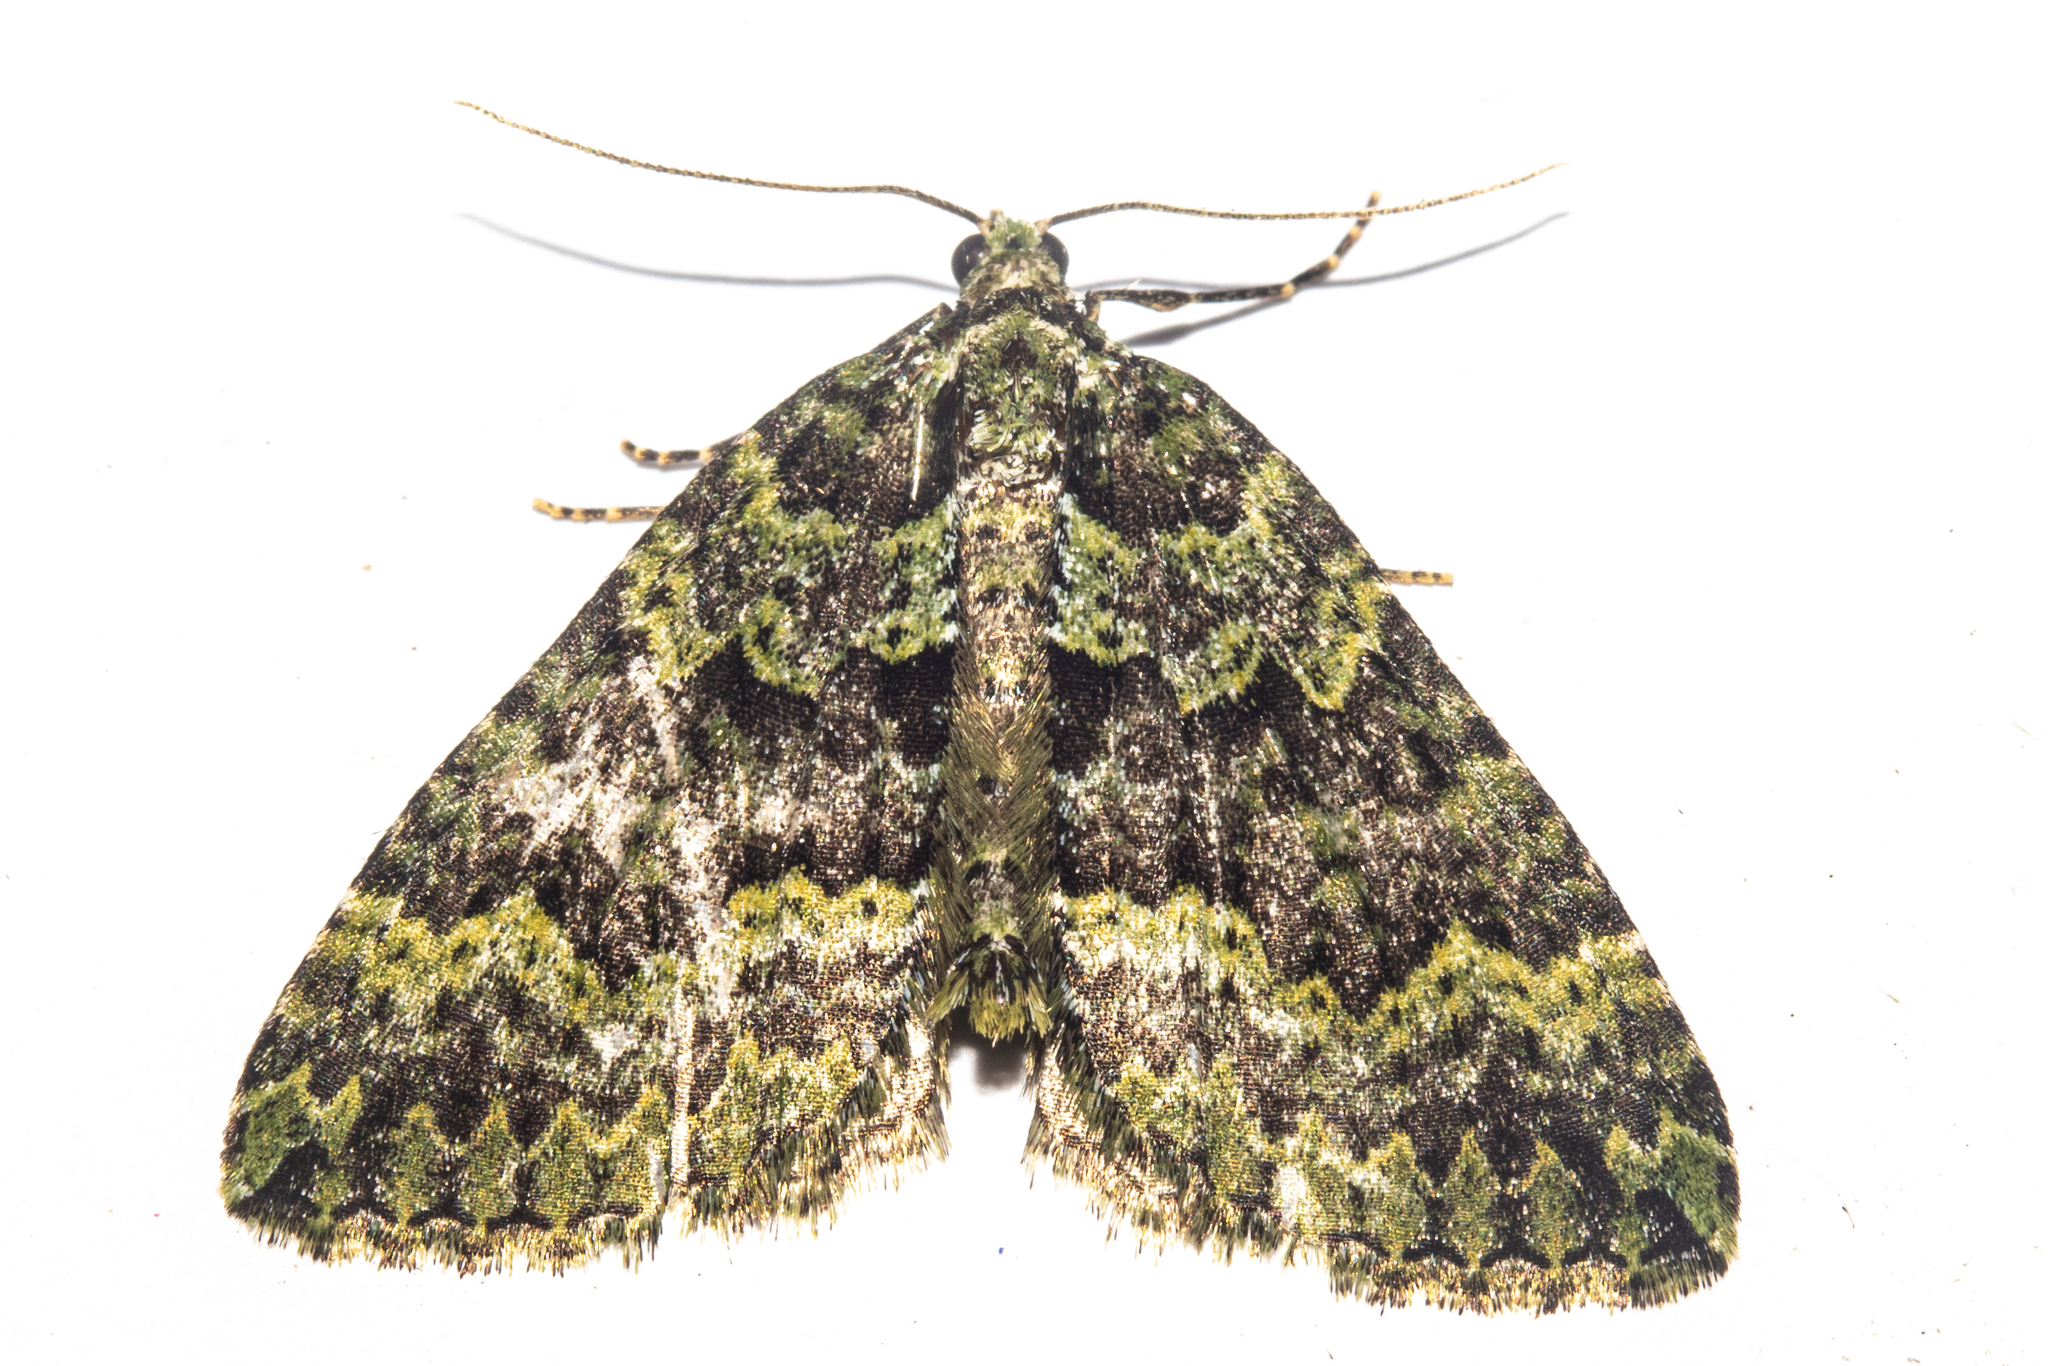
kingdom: Animalia
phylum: Arthropoda
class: Insecta
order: Lepidoptera
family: Geometridae
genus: Austrocidaria
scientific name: Austrocidaria callichlora
